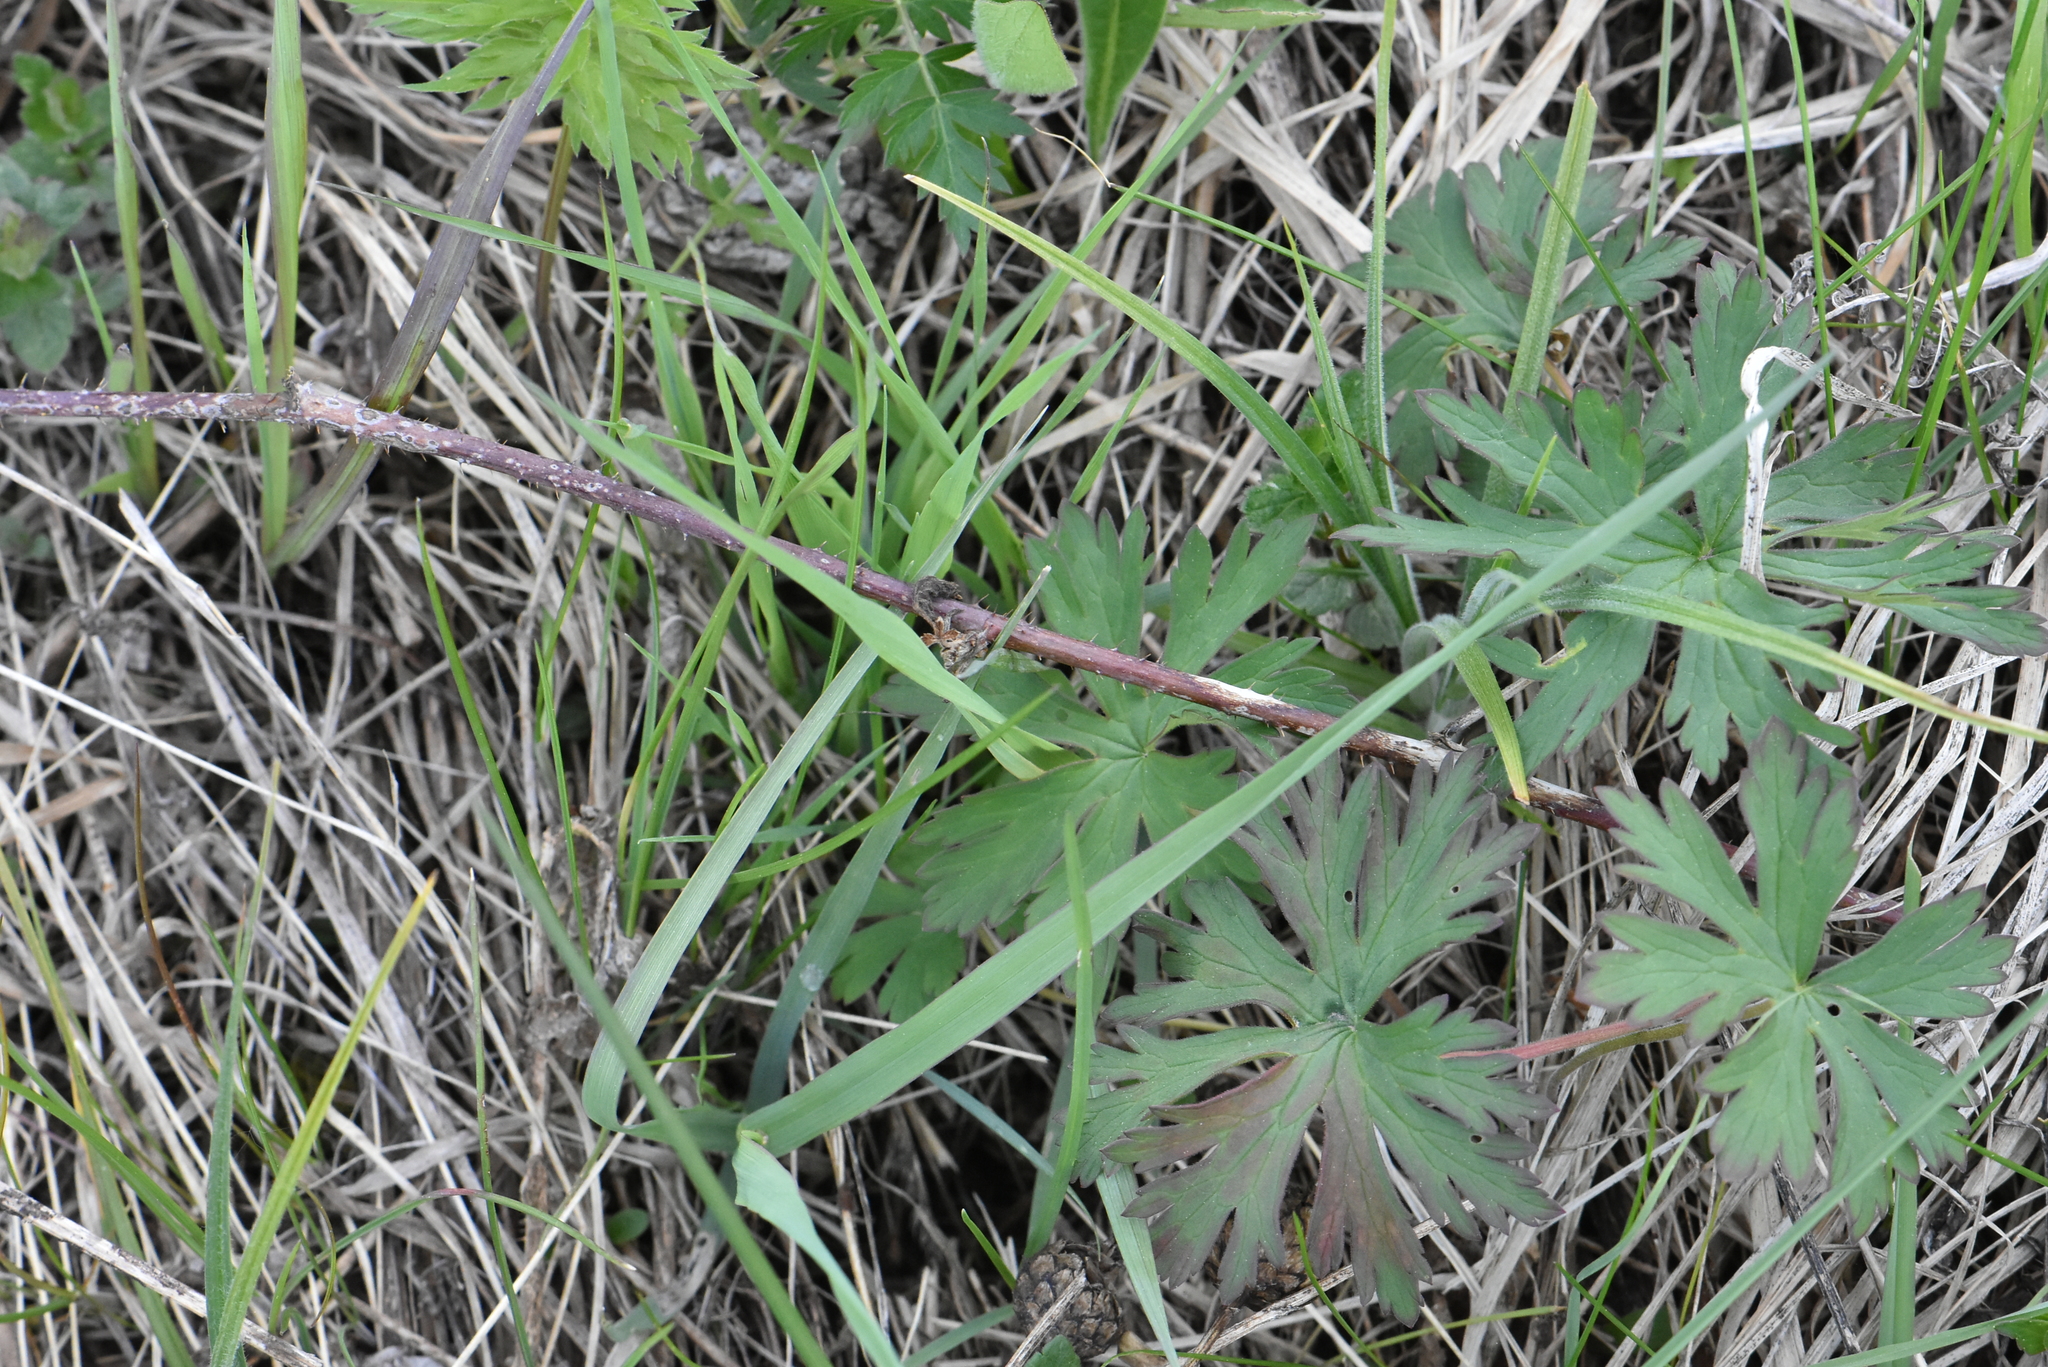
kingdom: Plantae
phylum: Tracheophyta
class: Magnoliopsida
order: Geraniales
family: Geraniaceae
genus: Geranium
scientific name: Geranium pratense
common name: Meadow crane's-bill
